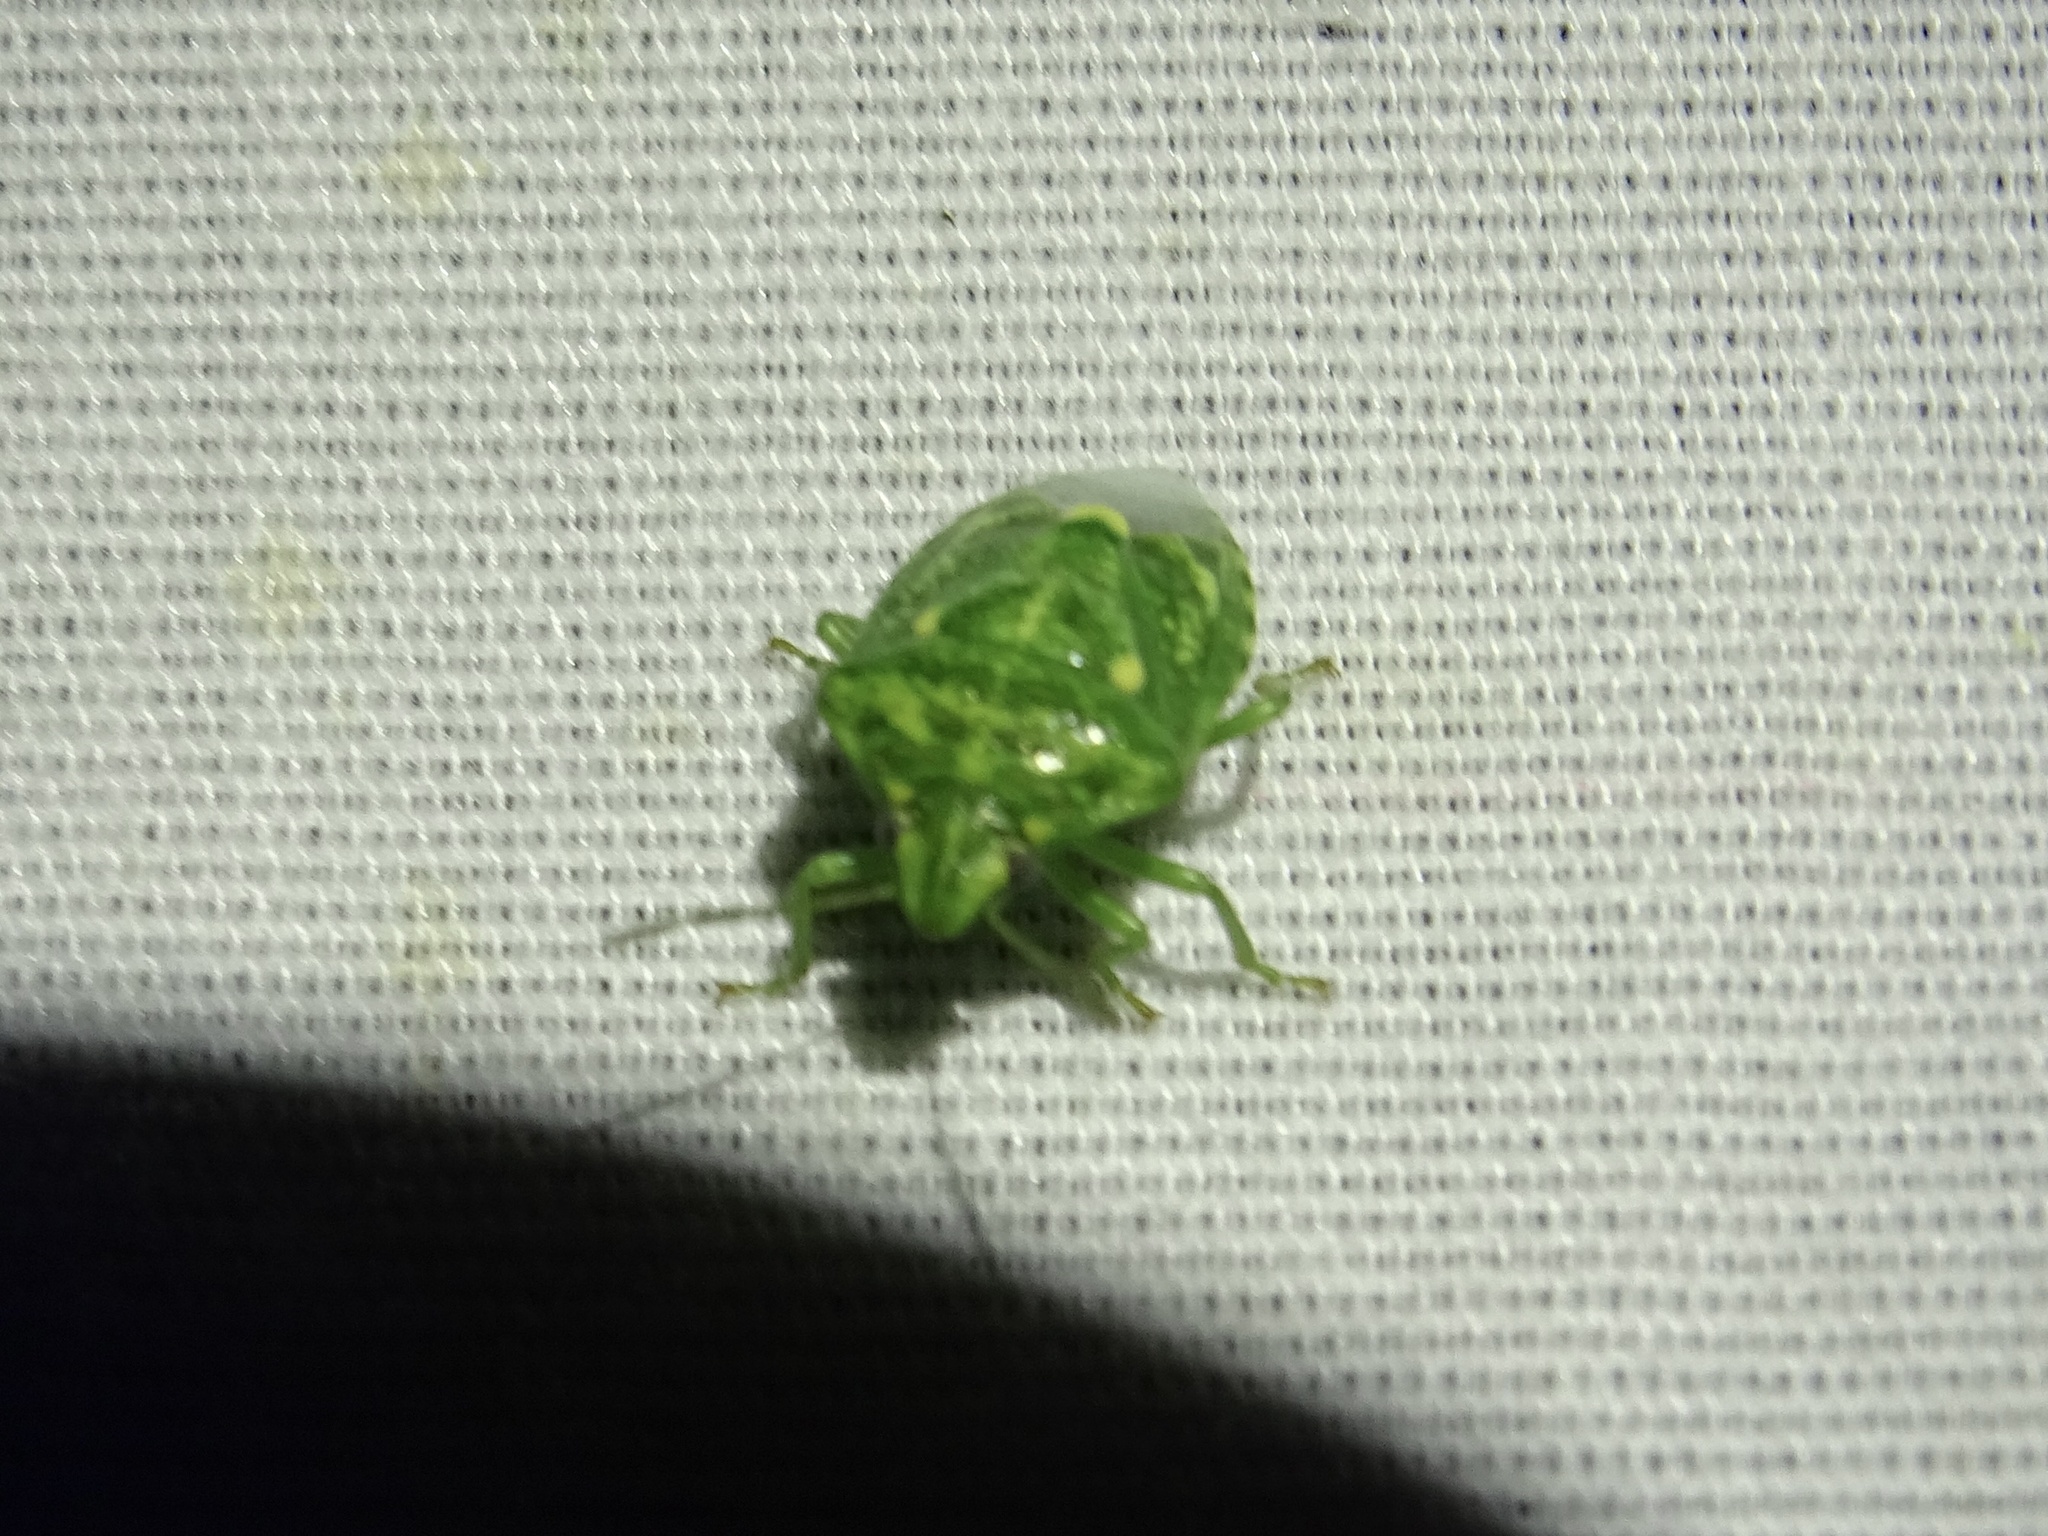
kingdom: Animalia
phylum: Arthropoda
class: Insecta
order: Hemiptera
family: Pentatomidae
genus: Banasa
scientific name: Banasa euchlora
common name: Cedar berry bug
